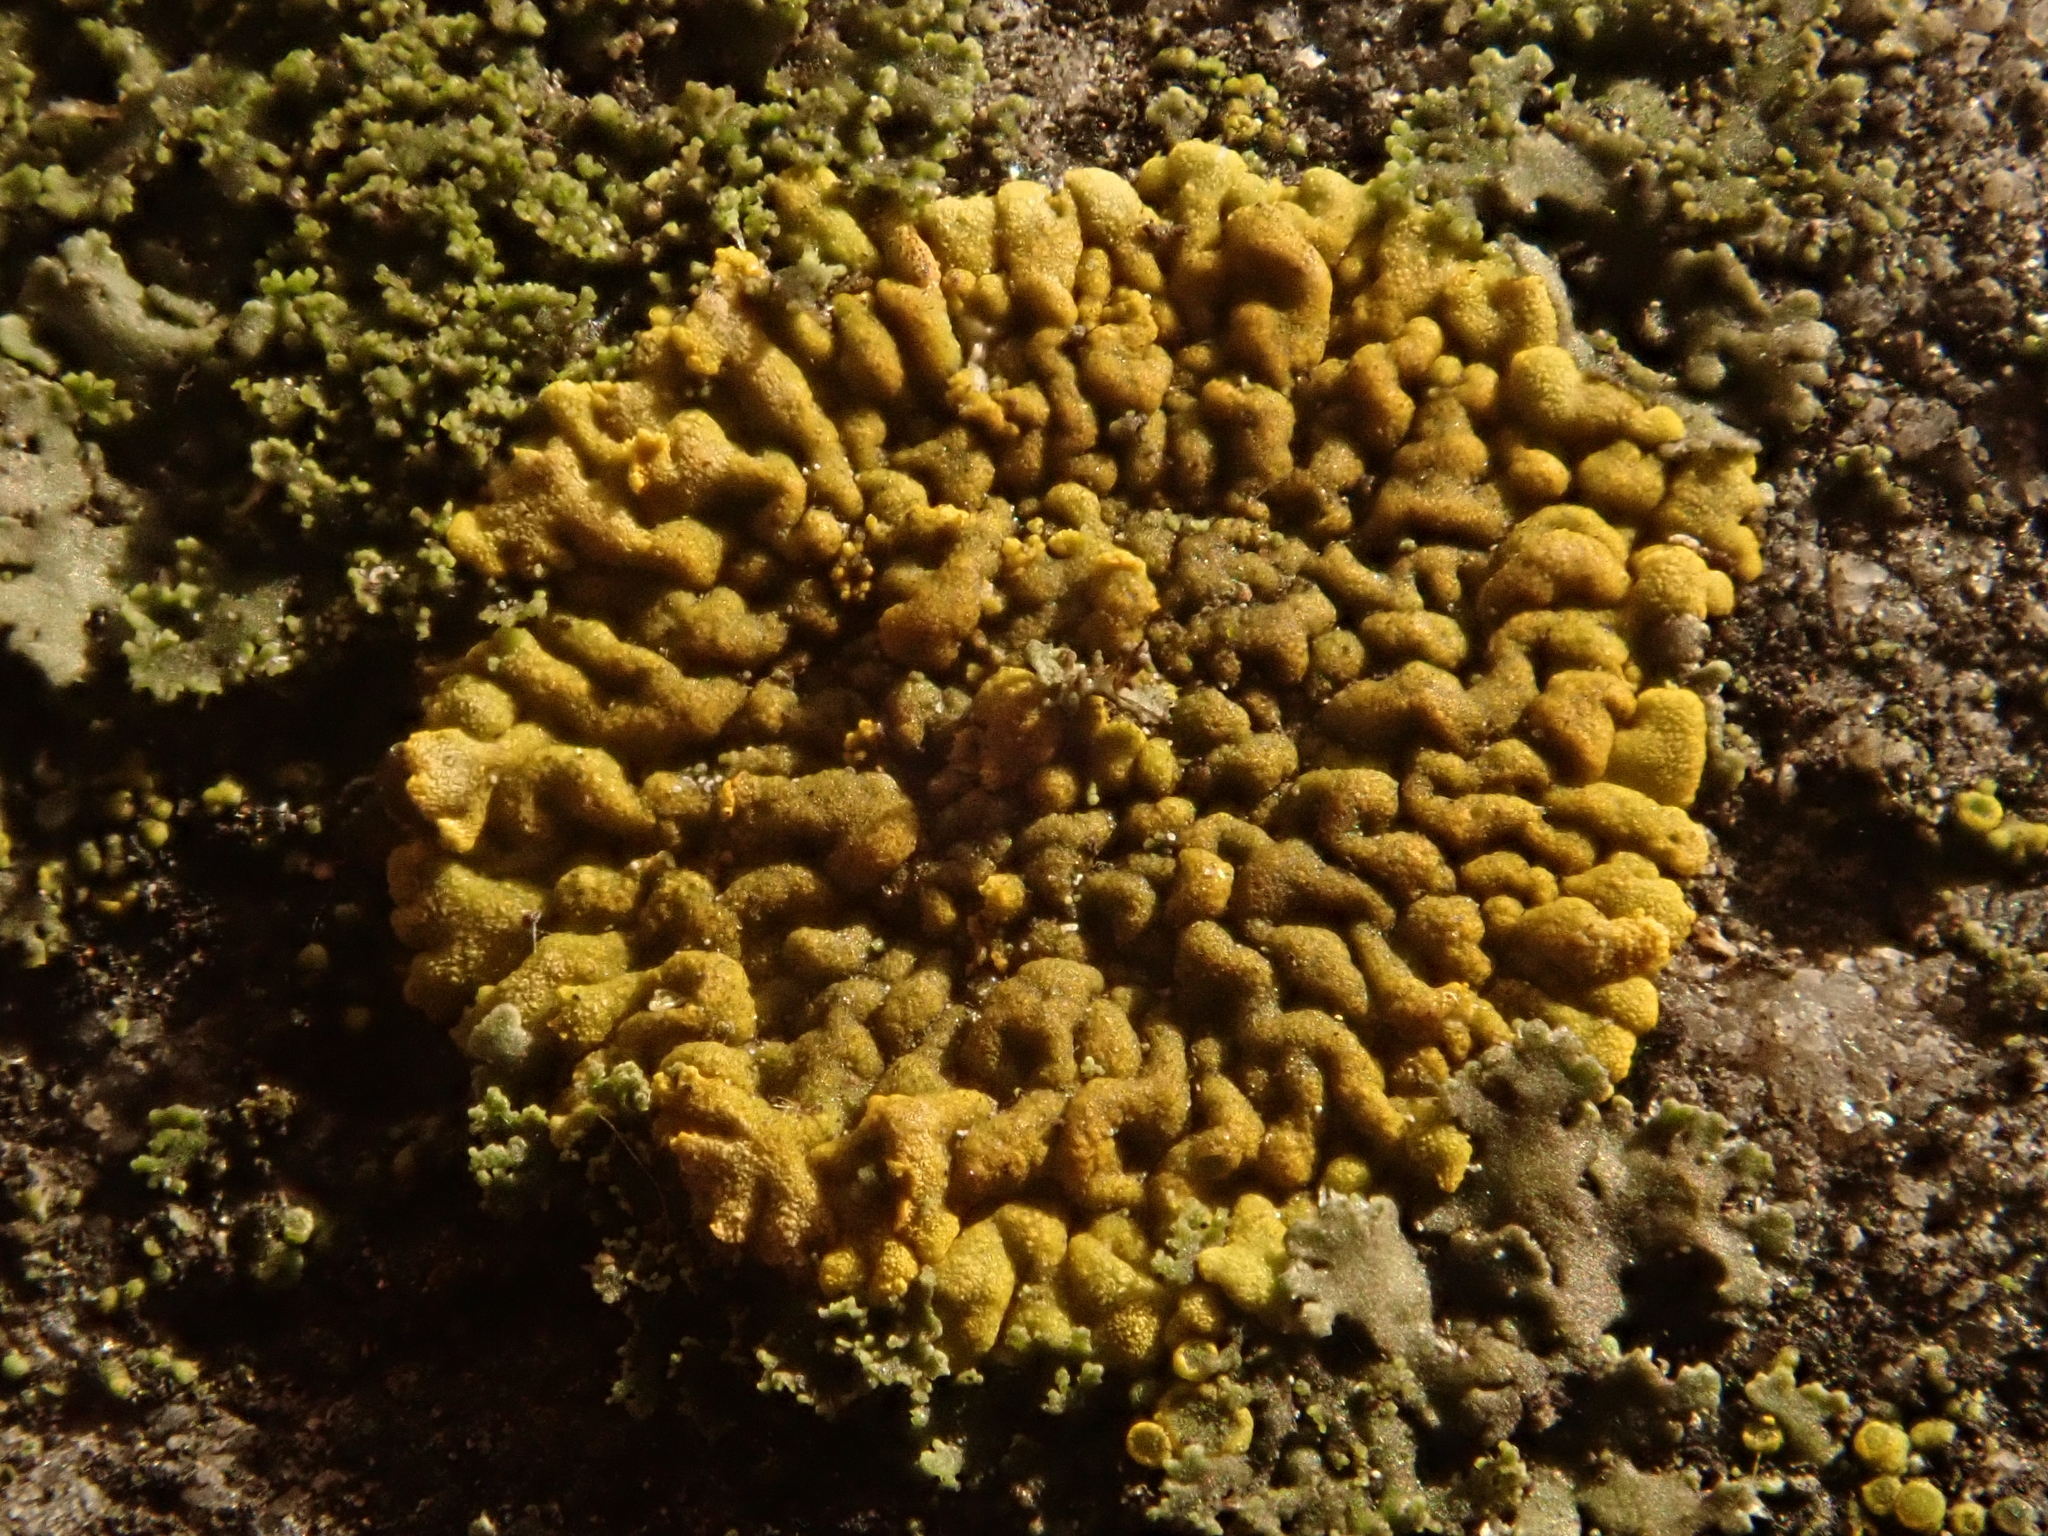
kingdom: Fungi
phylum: Ascomycota
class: Lecanoromycetes
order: Teloschistales
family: Teloschistaceae
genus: Calogaya
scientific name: Calogaya decipiens
